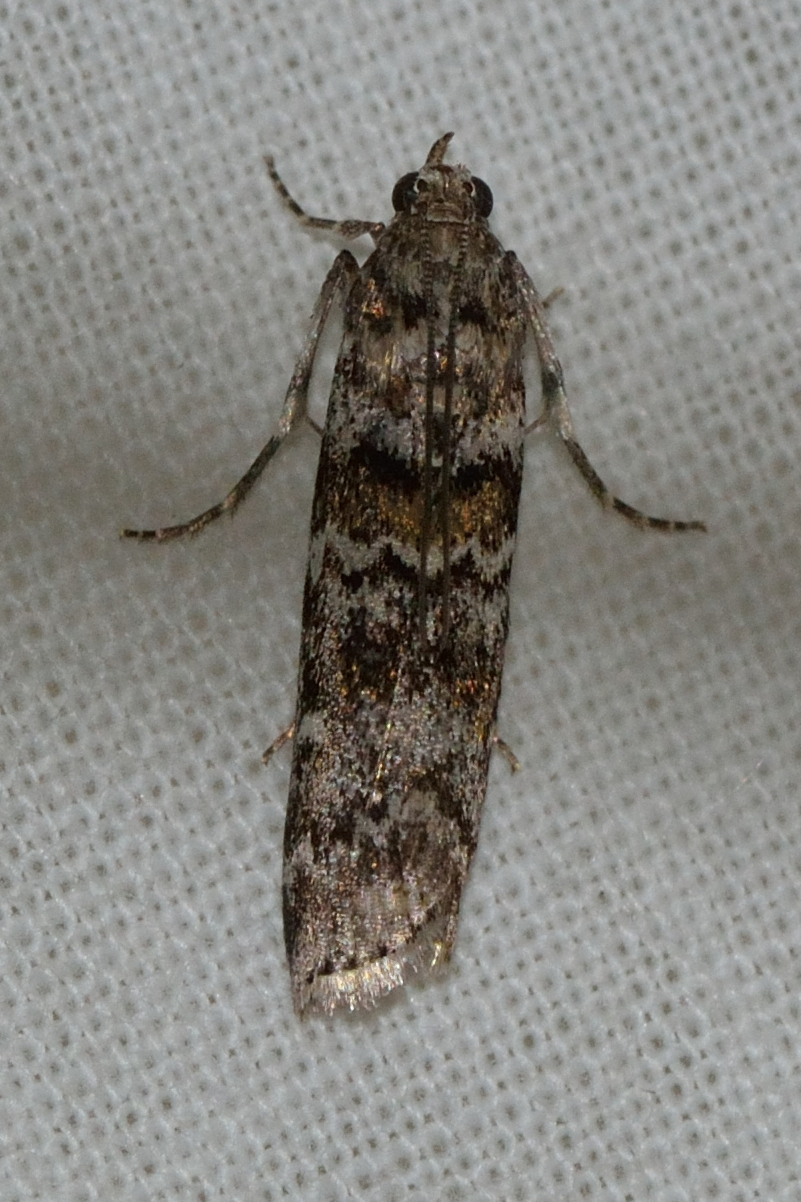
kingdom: Animalia
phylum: Arthropoda
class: Insecta
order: Lepidoptera
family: Pyralidae
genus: Dioryctria
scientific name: Dioryctria abietella
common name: Dark pine knot-horn
